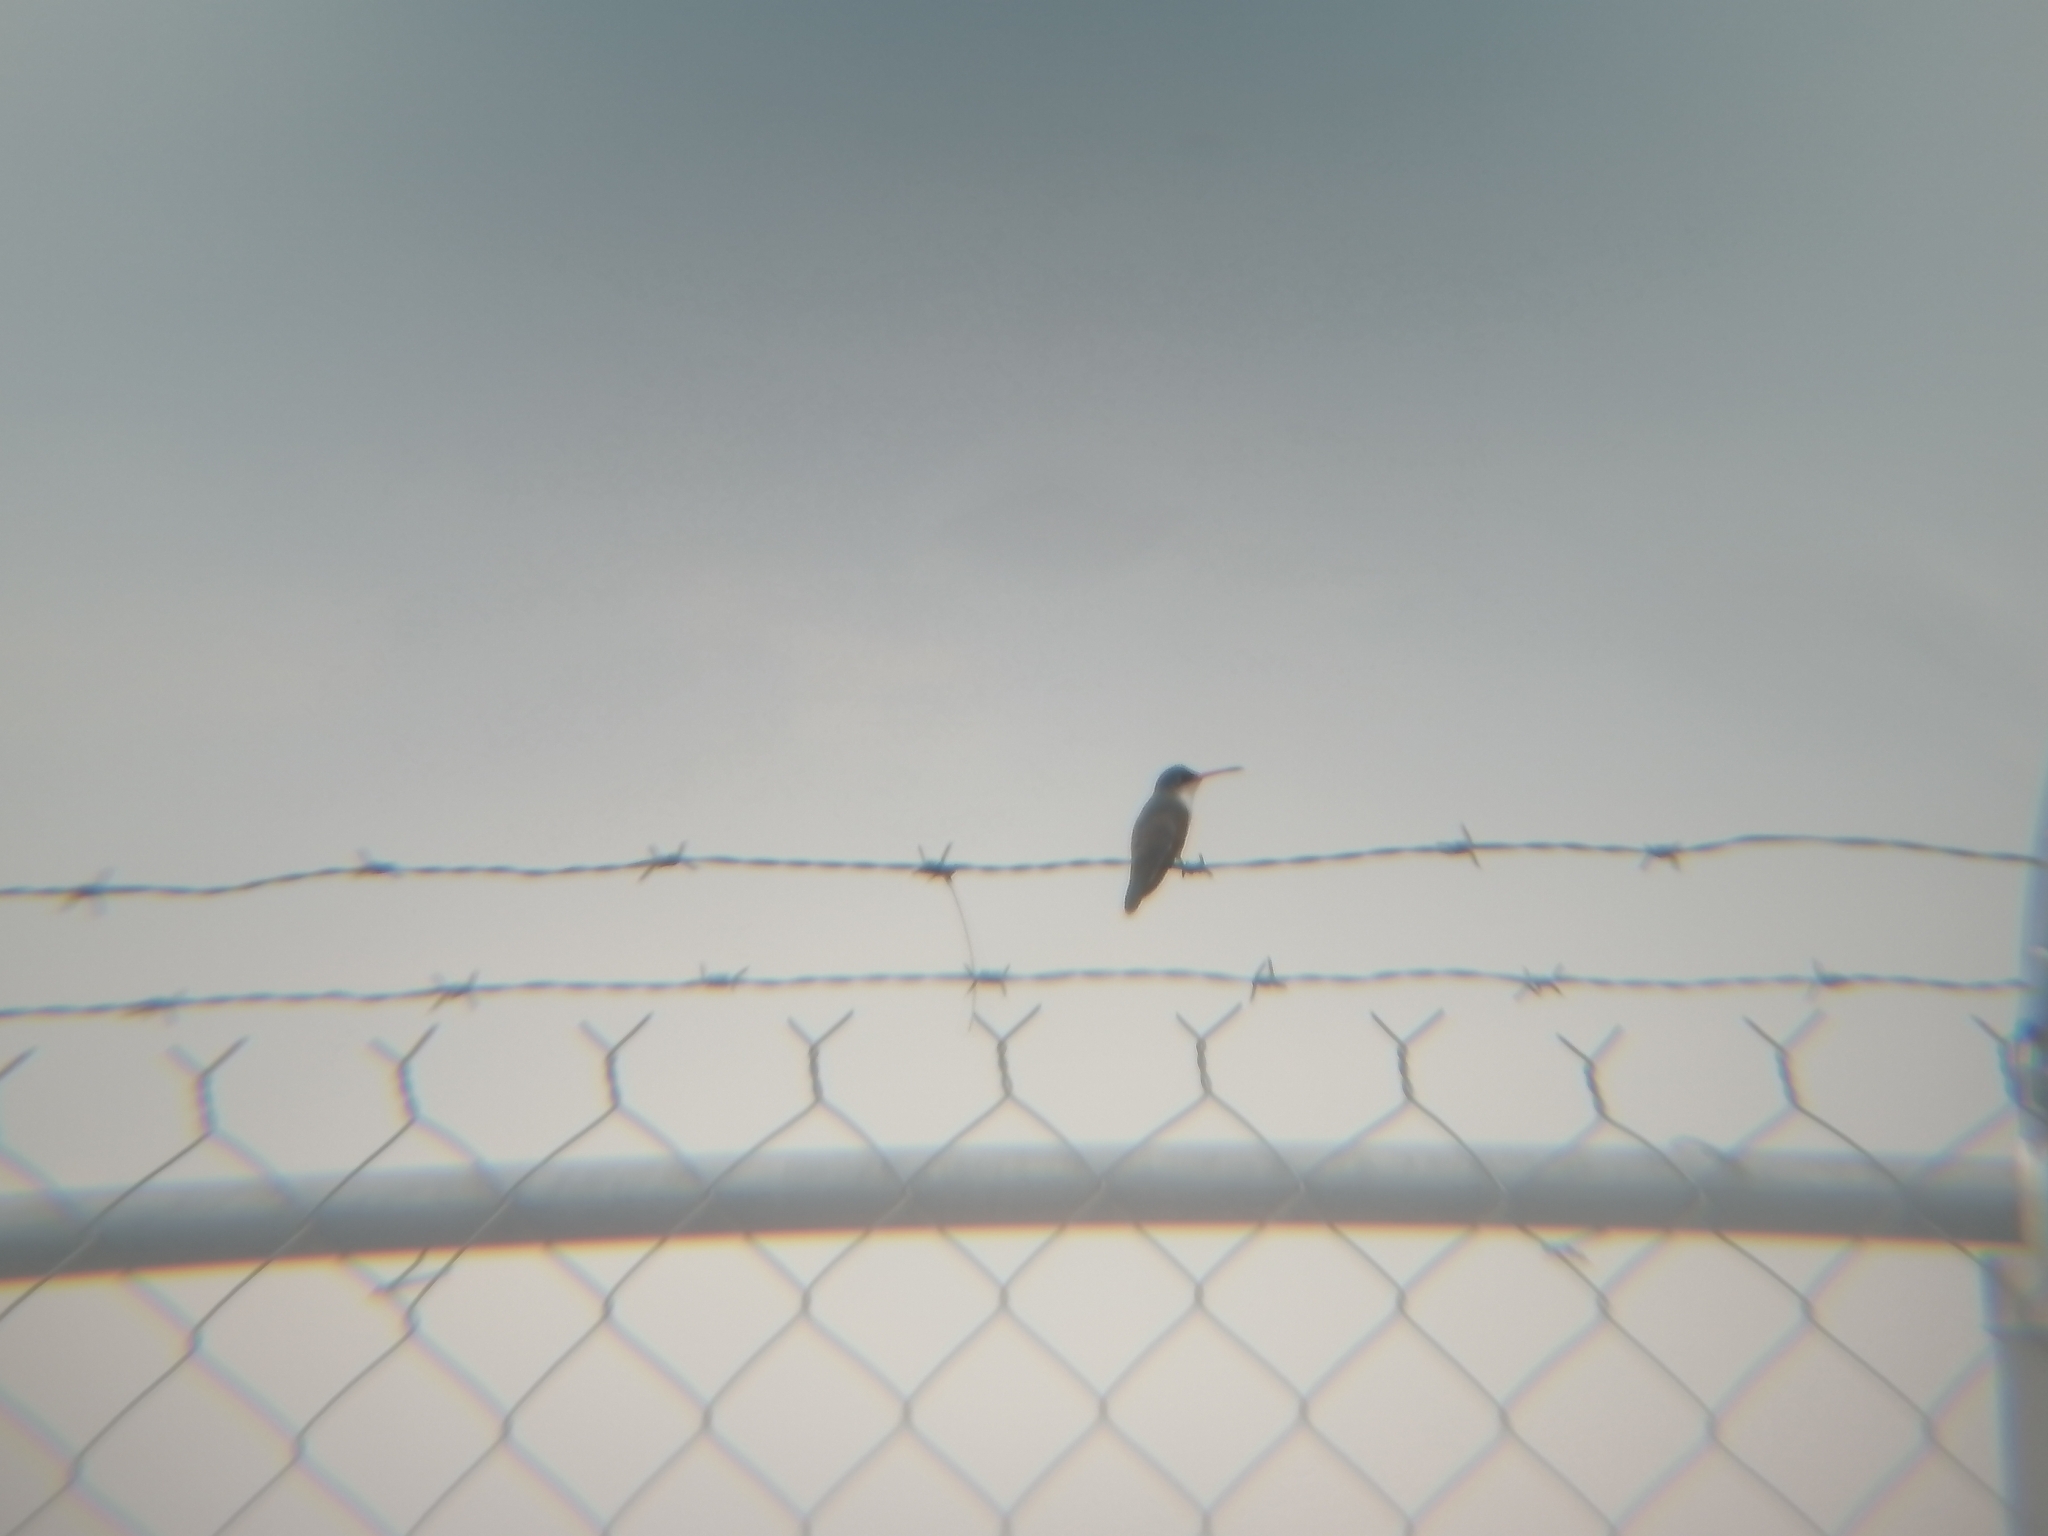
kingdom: Animalia
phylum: Chordata
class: Aves
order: Apodiformes
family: Trochilidae
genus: Leucolia
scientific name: Leucolia violiceps
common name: Violet-crowned hummingbird
